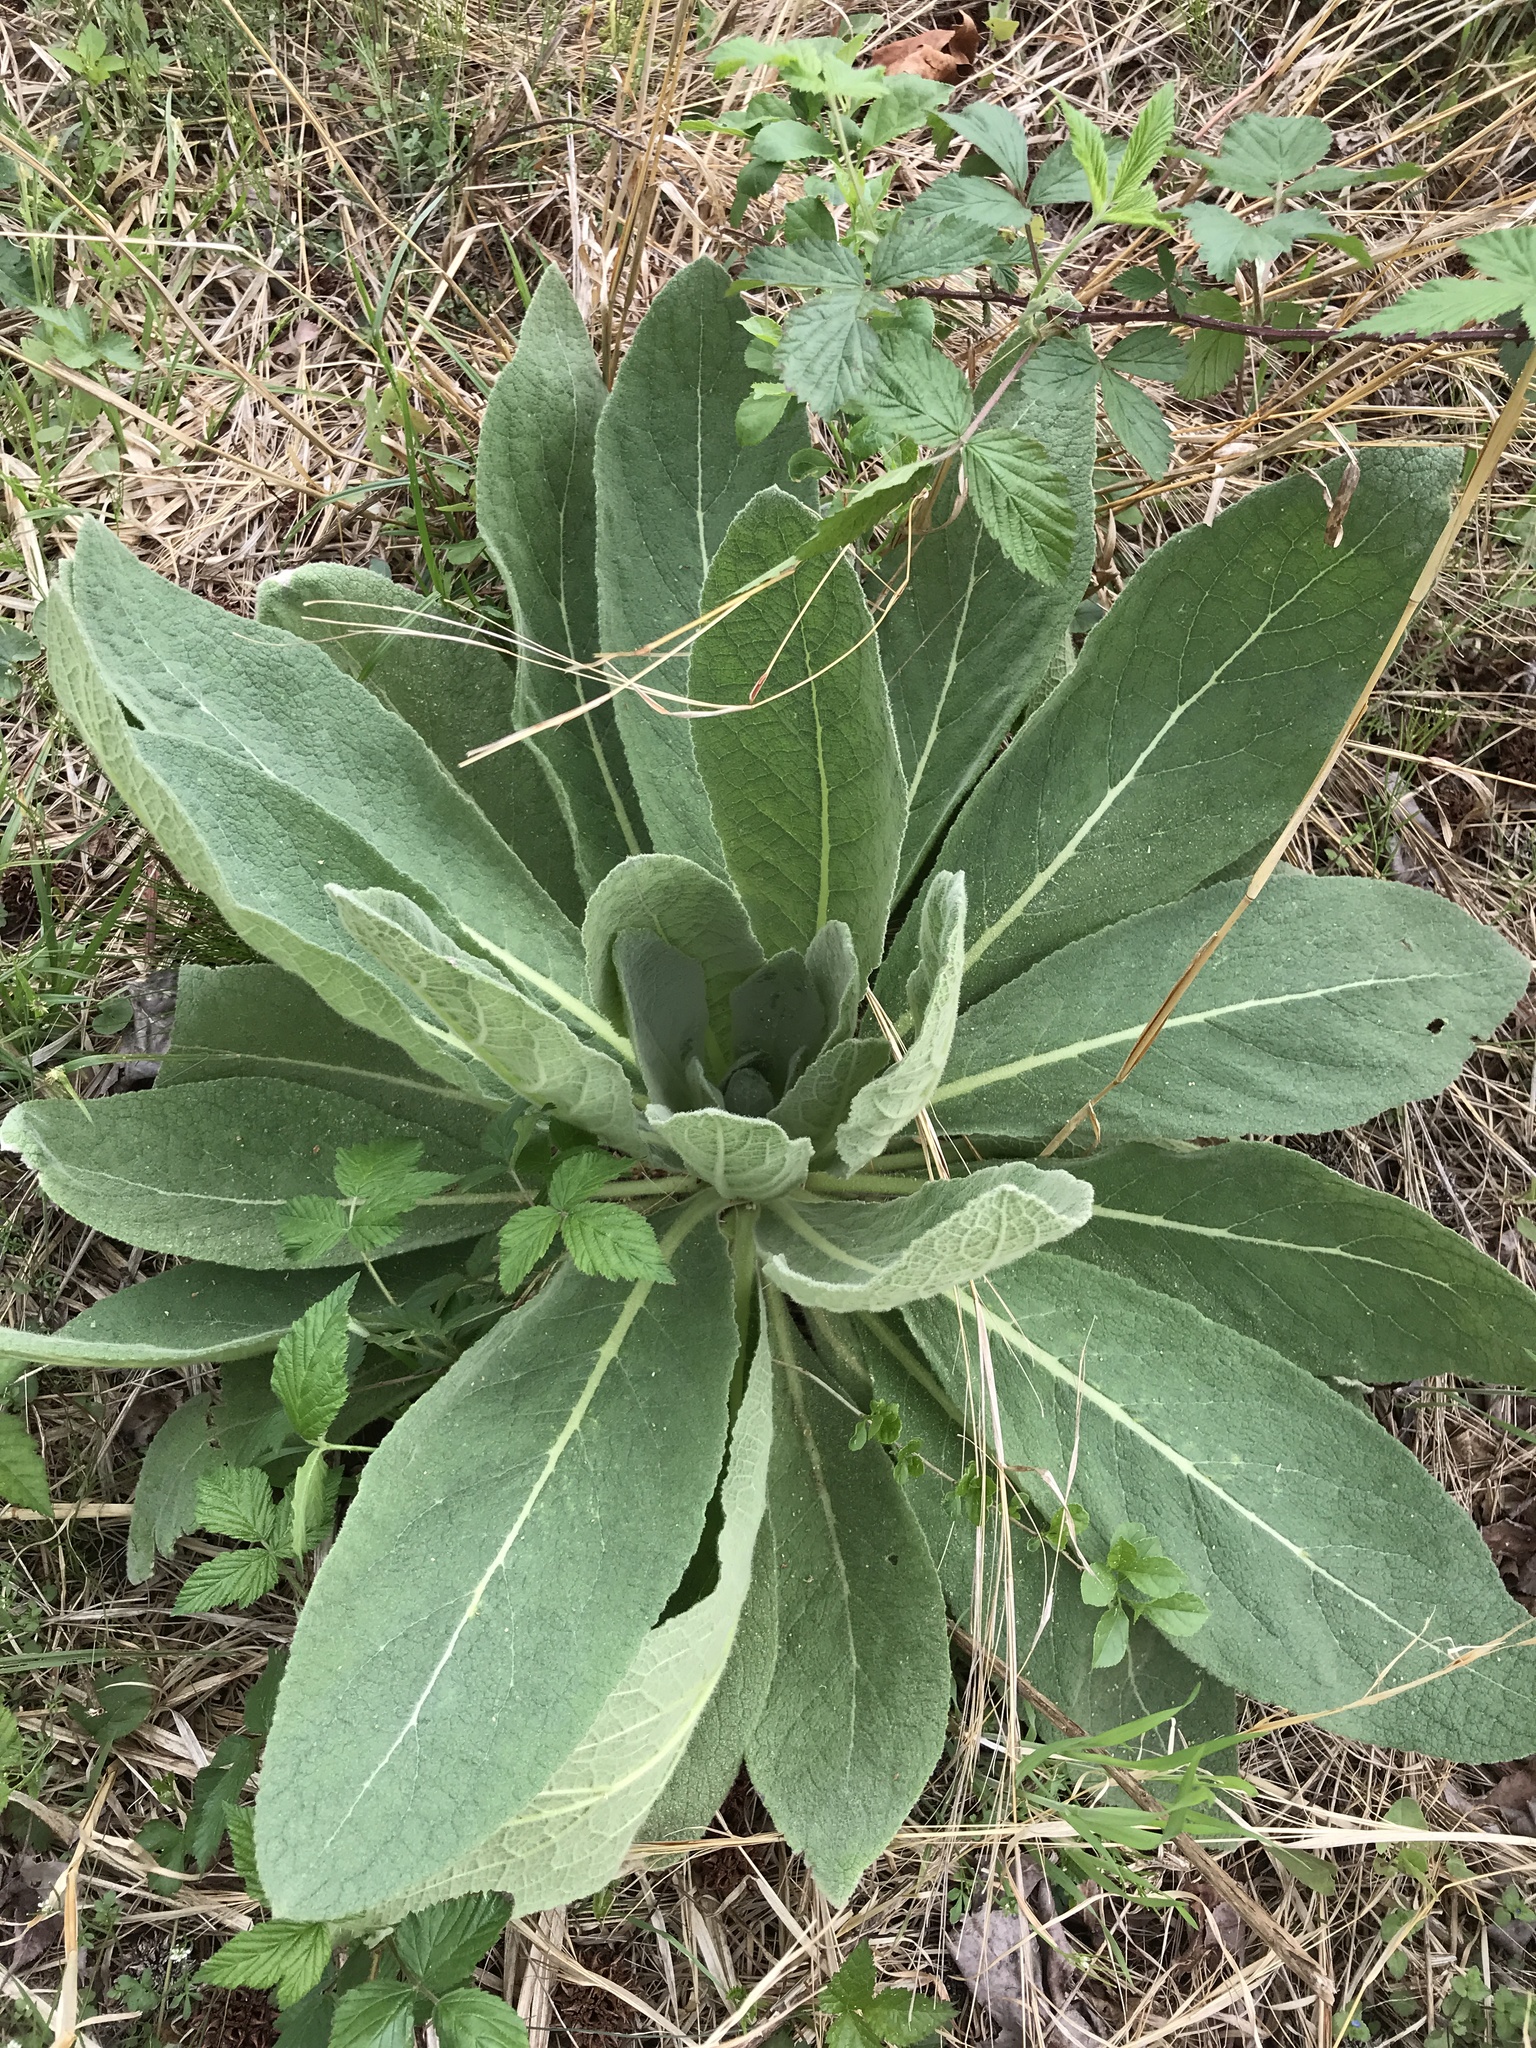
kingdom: Plantae
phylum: Tracheophyta
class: Magnoliopsida
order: Lamiales
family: Scrophulariaceae
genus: Verbascum
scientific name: Verbascum thapsus
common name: Common mullein
